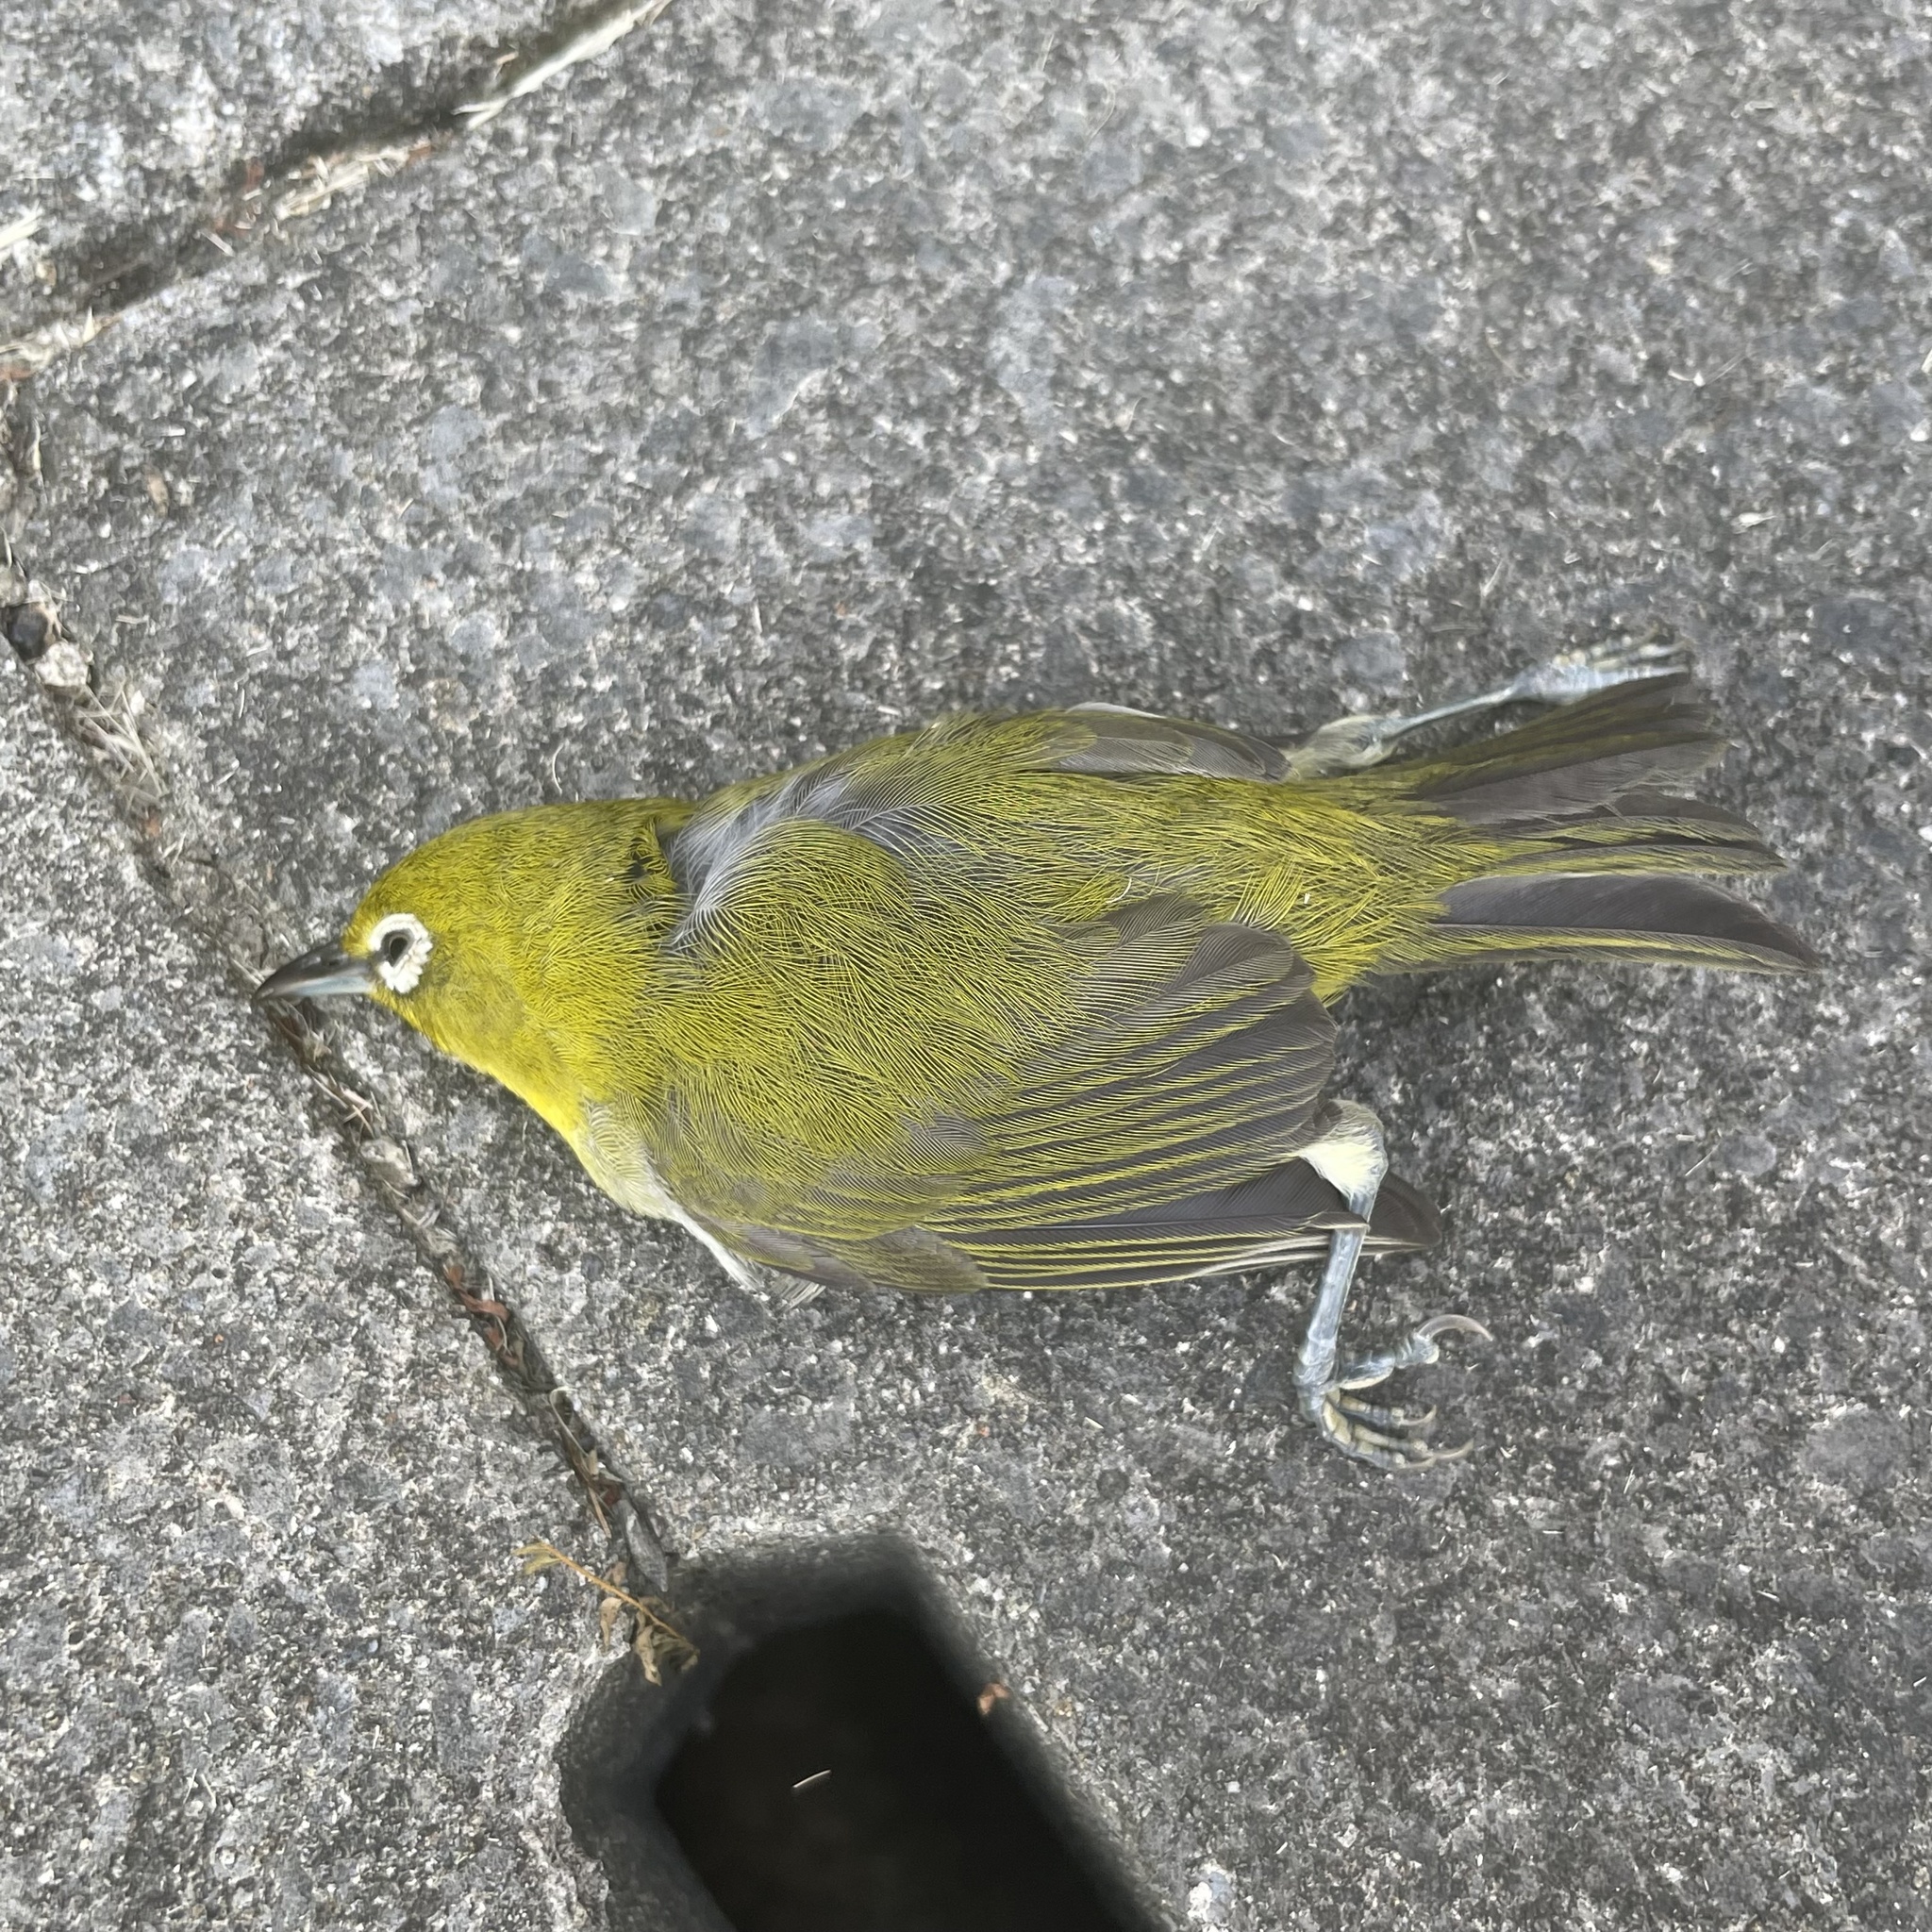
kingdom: Animalia
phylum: Chordata
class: Aves
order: Passeriformes
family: Zosteropidae
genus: Zosterops
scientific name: Zosterops japonicus
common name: Japanese white-eye
